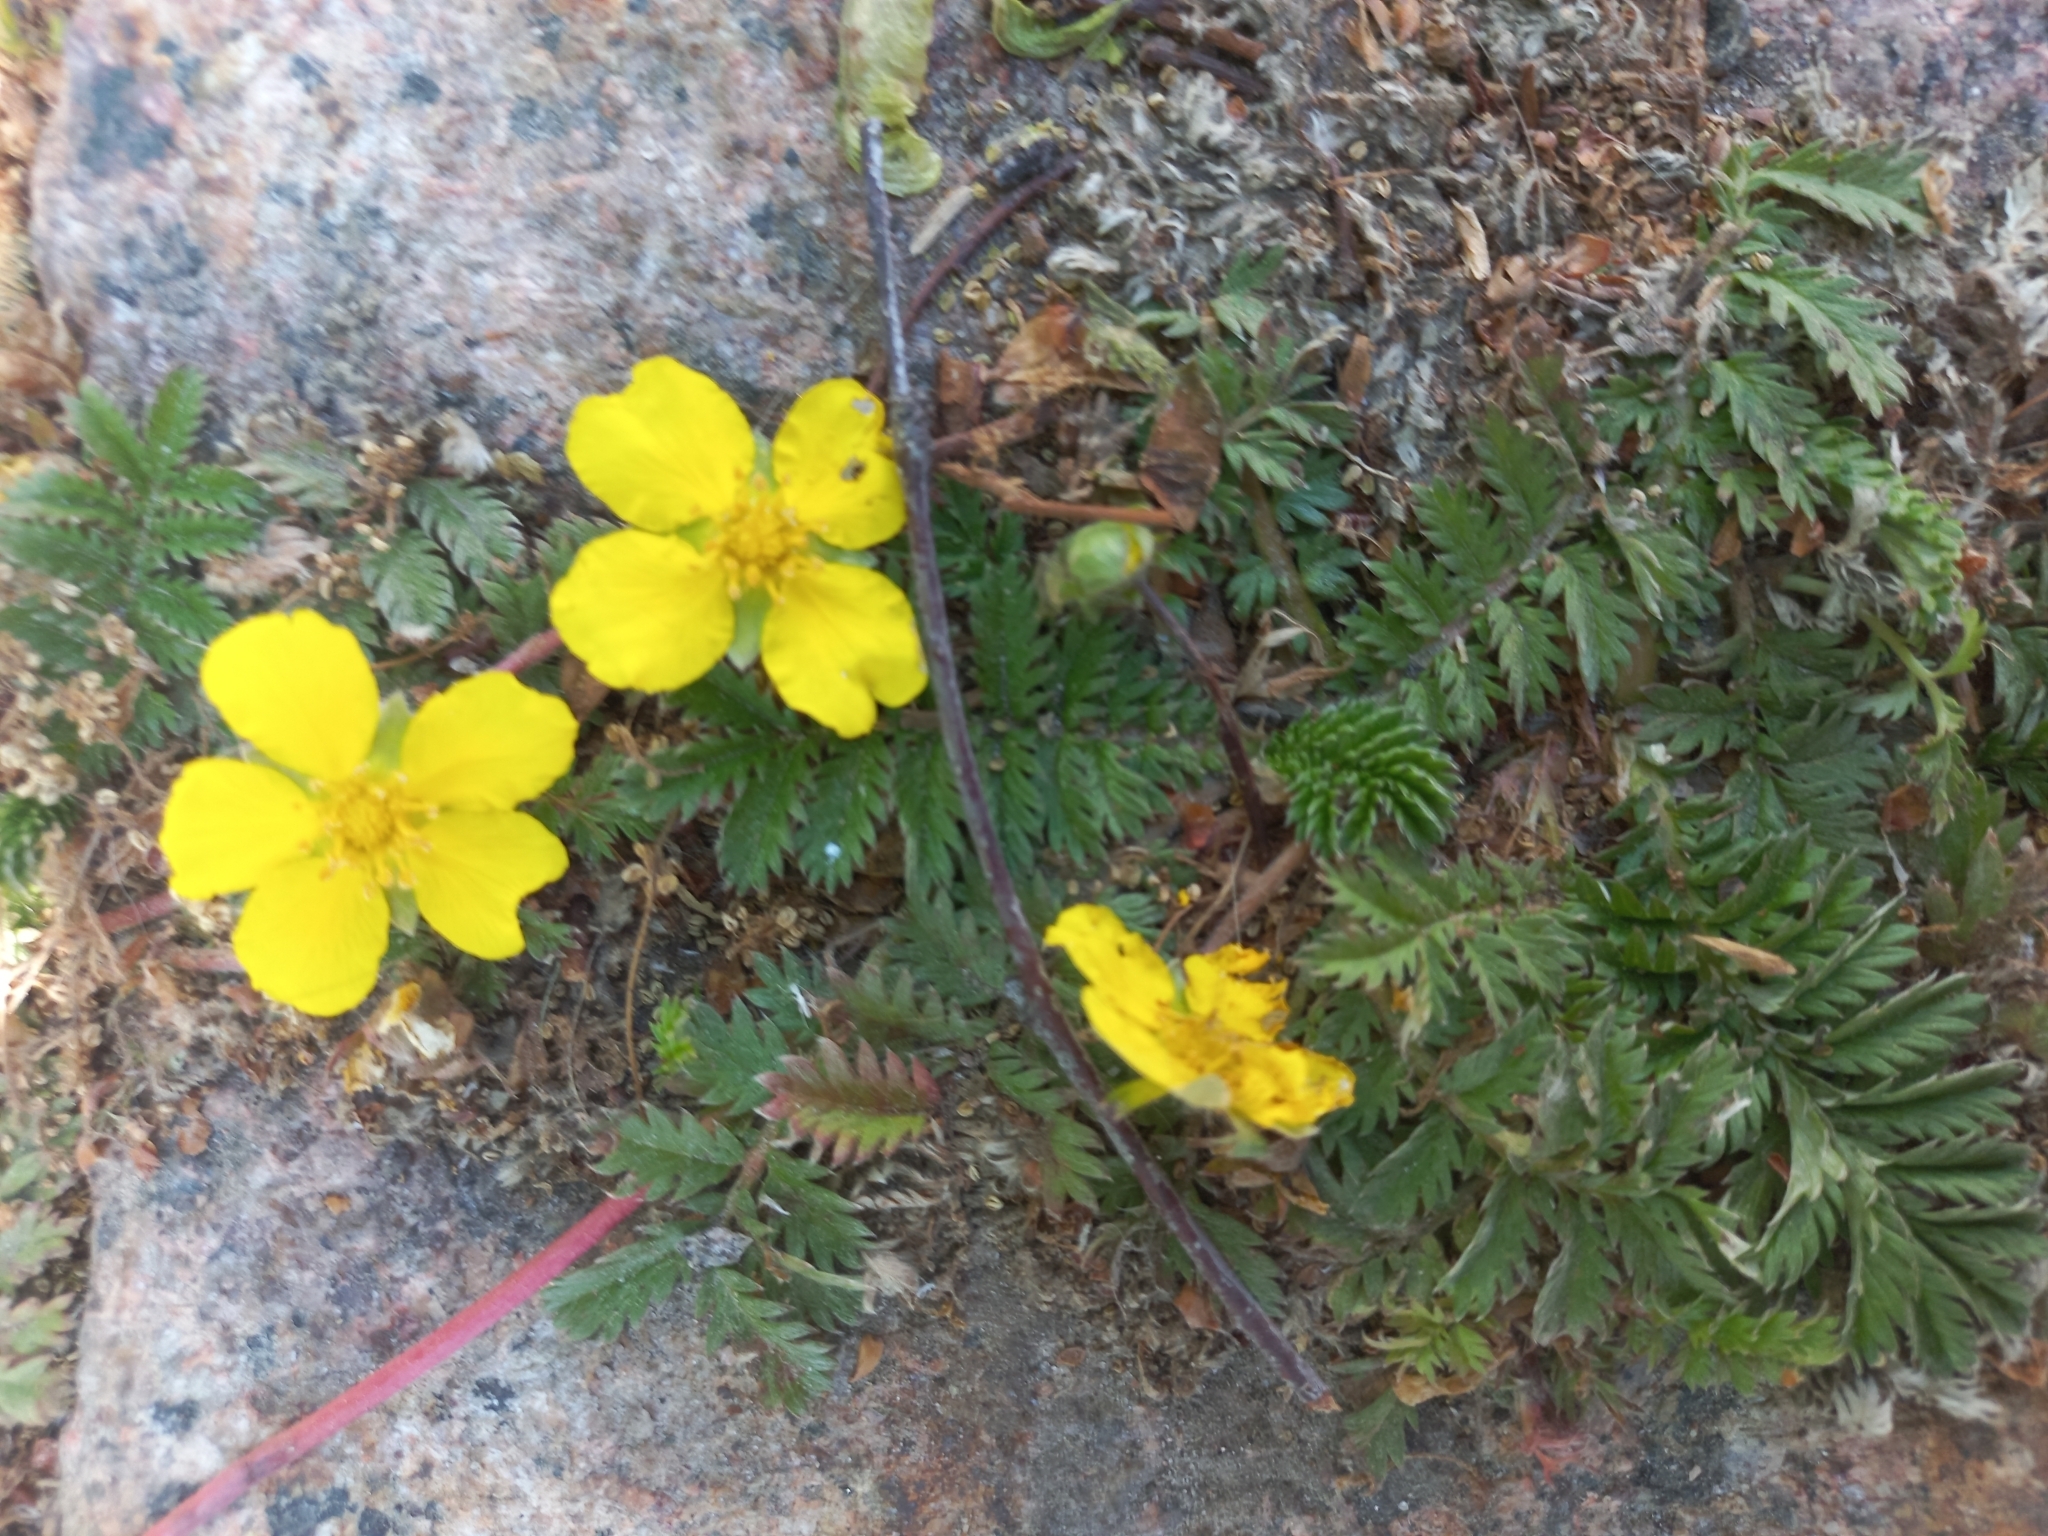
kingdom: Plantae
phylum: Tracheophyta
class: Magnoliopsida
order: Rosales
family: Rosaceae
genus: Argentina
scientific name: Argentina anserina
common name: Common silverweed
